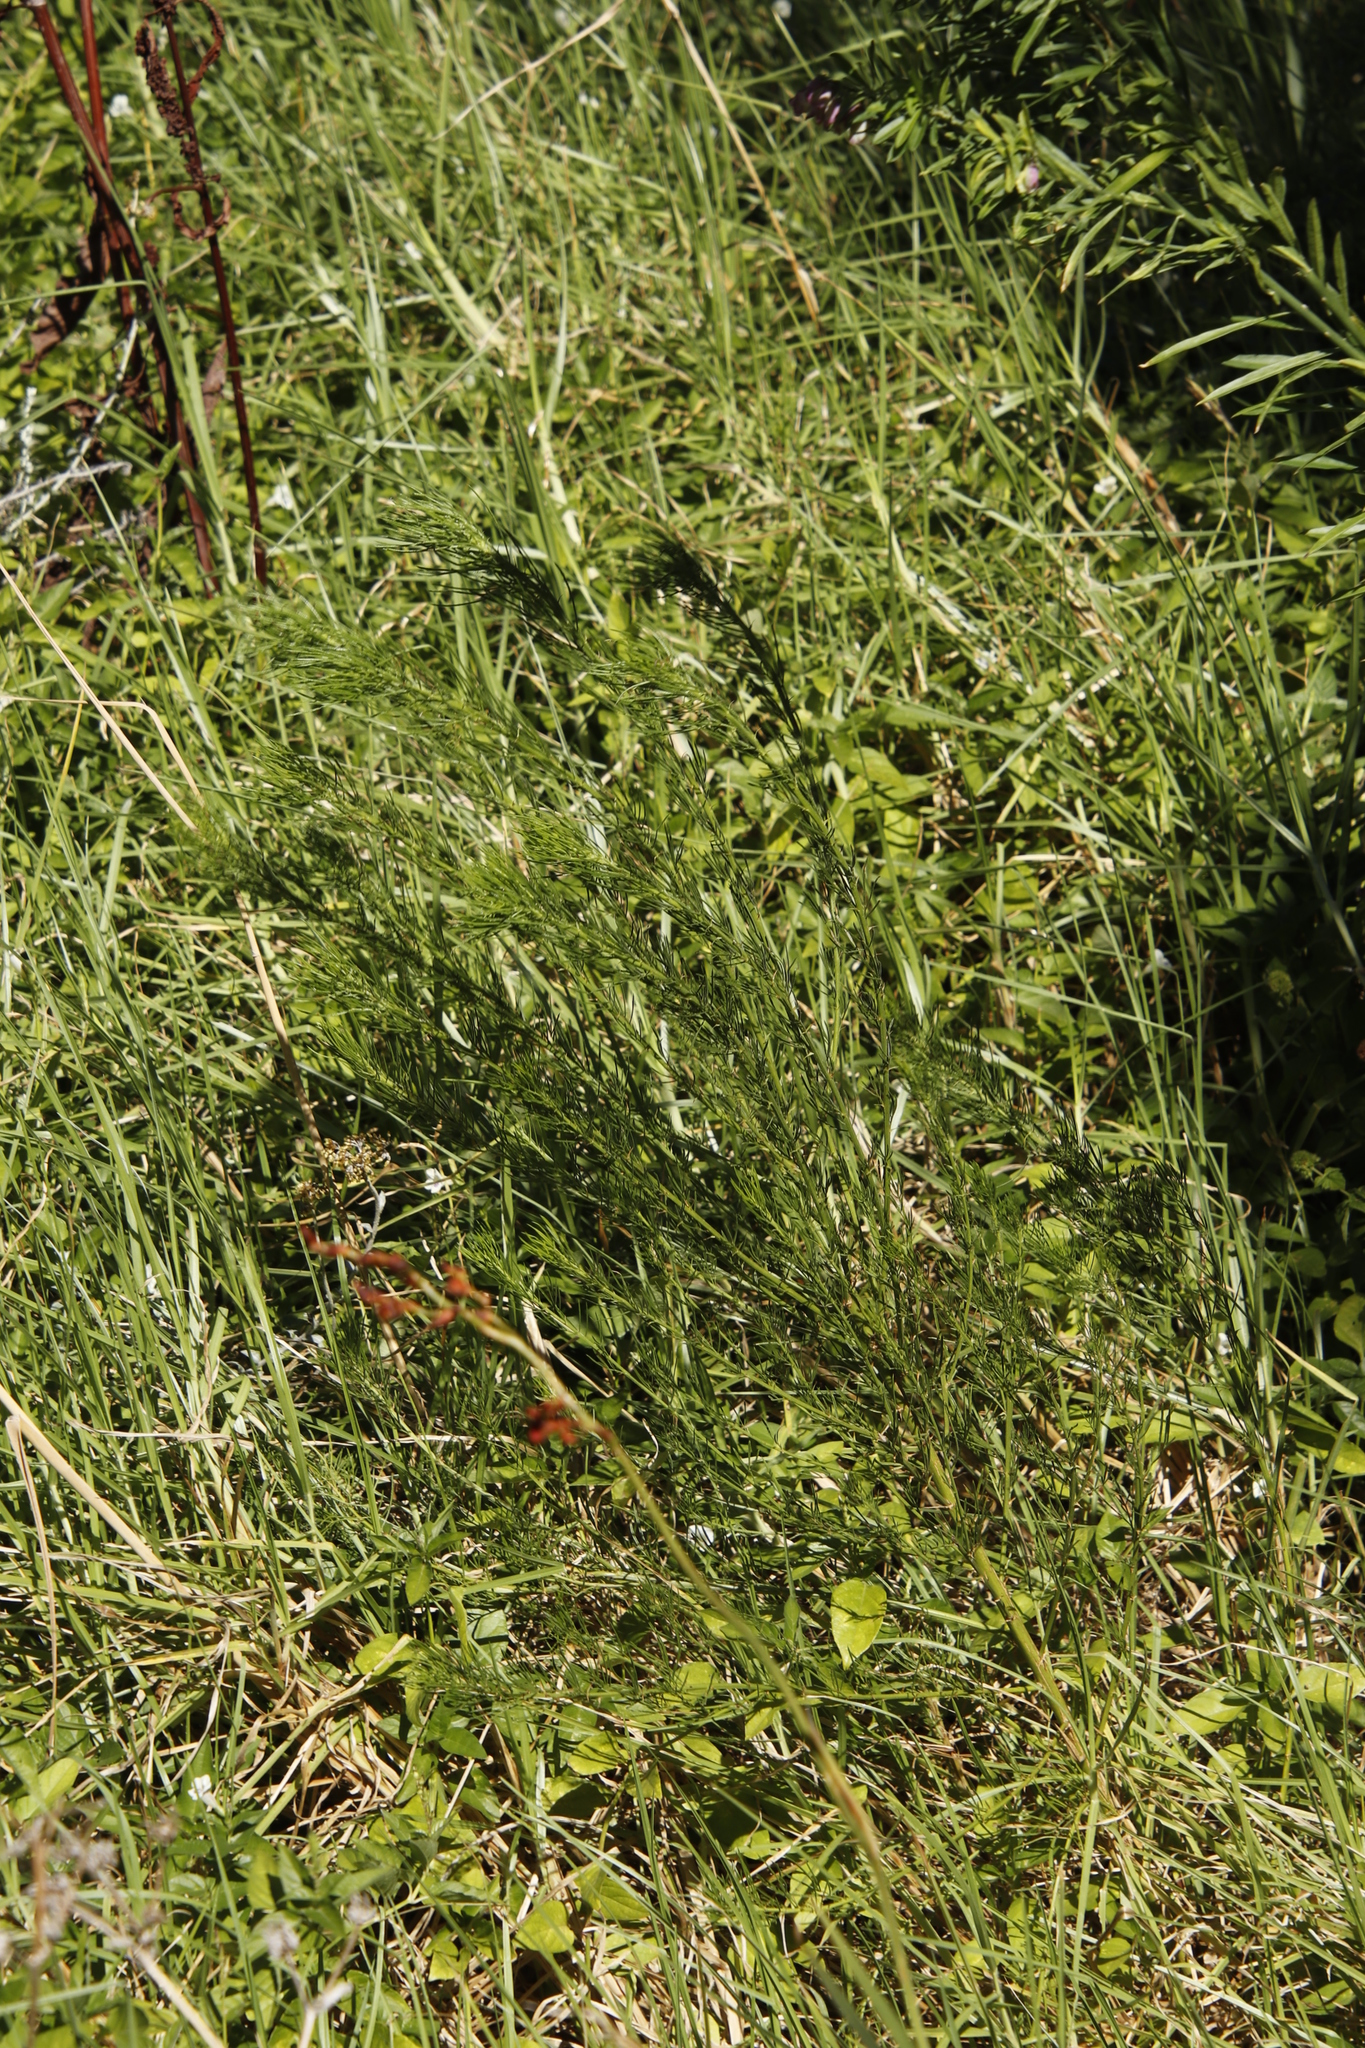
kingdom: Plantae
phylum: Tracheophyta
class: Magnoliopsida
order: Fabales
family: Fabaceae
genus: Psoralea
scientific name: Psoralea pinnata
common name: African scurfpea
